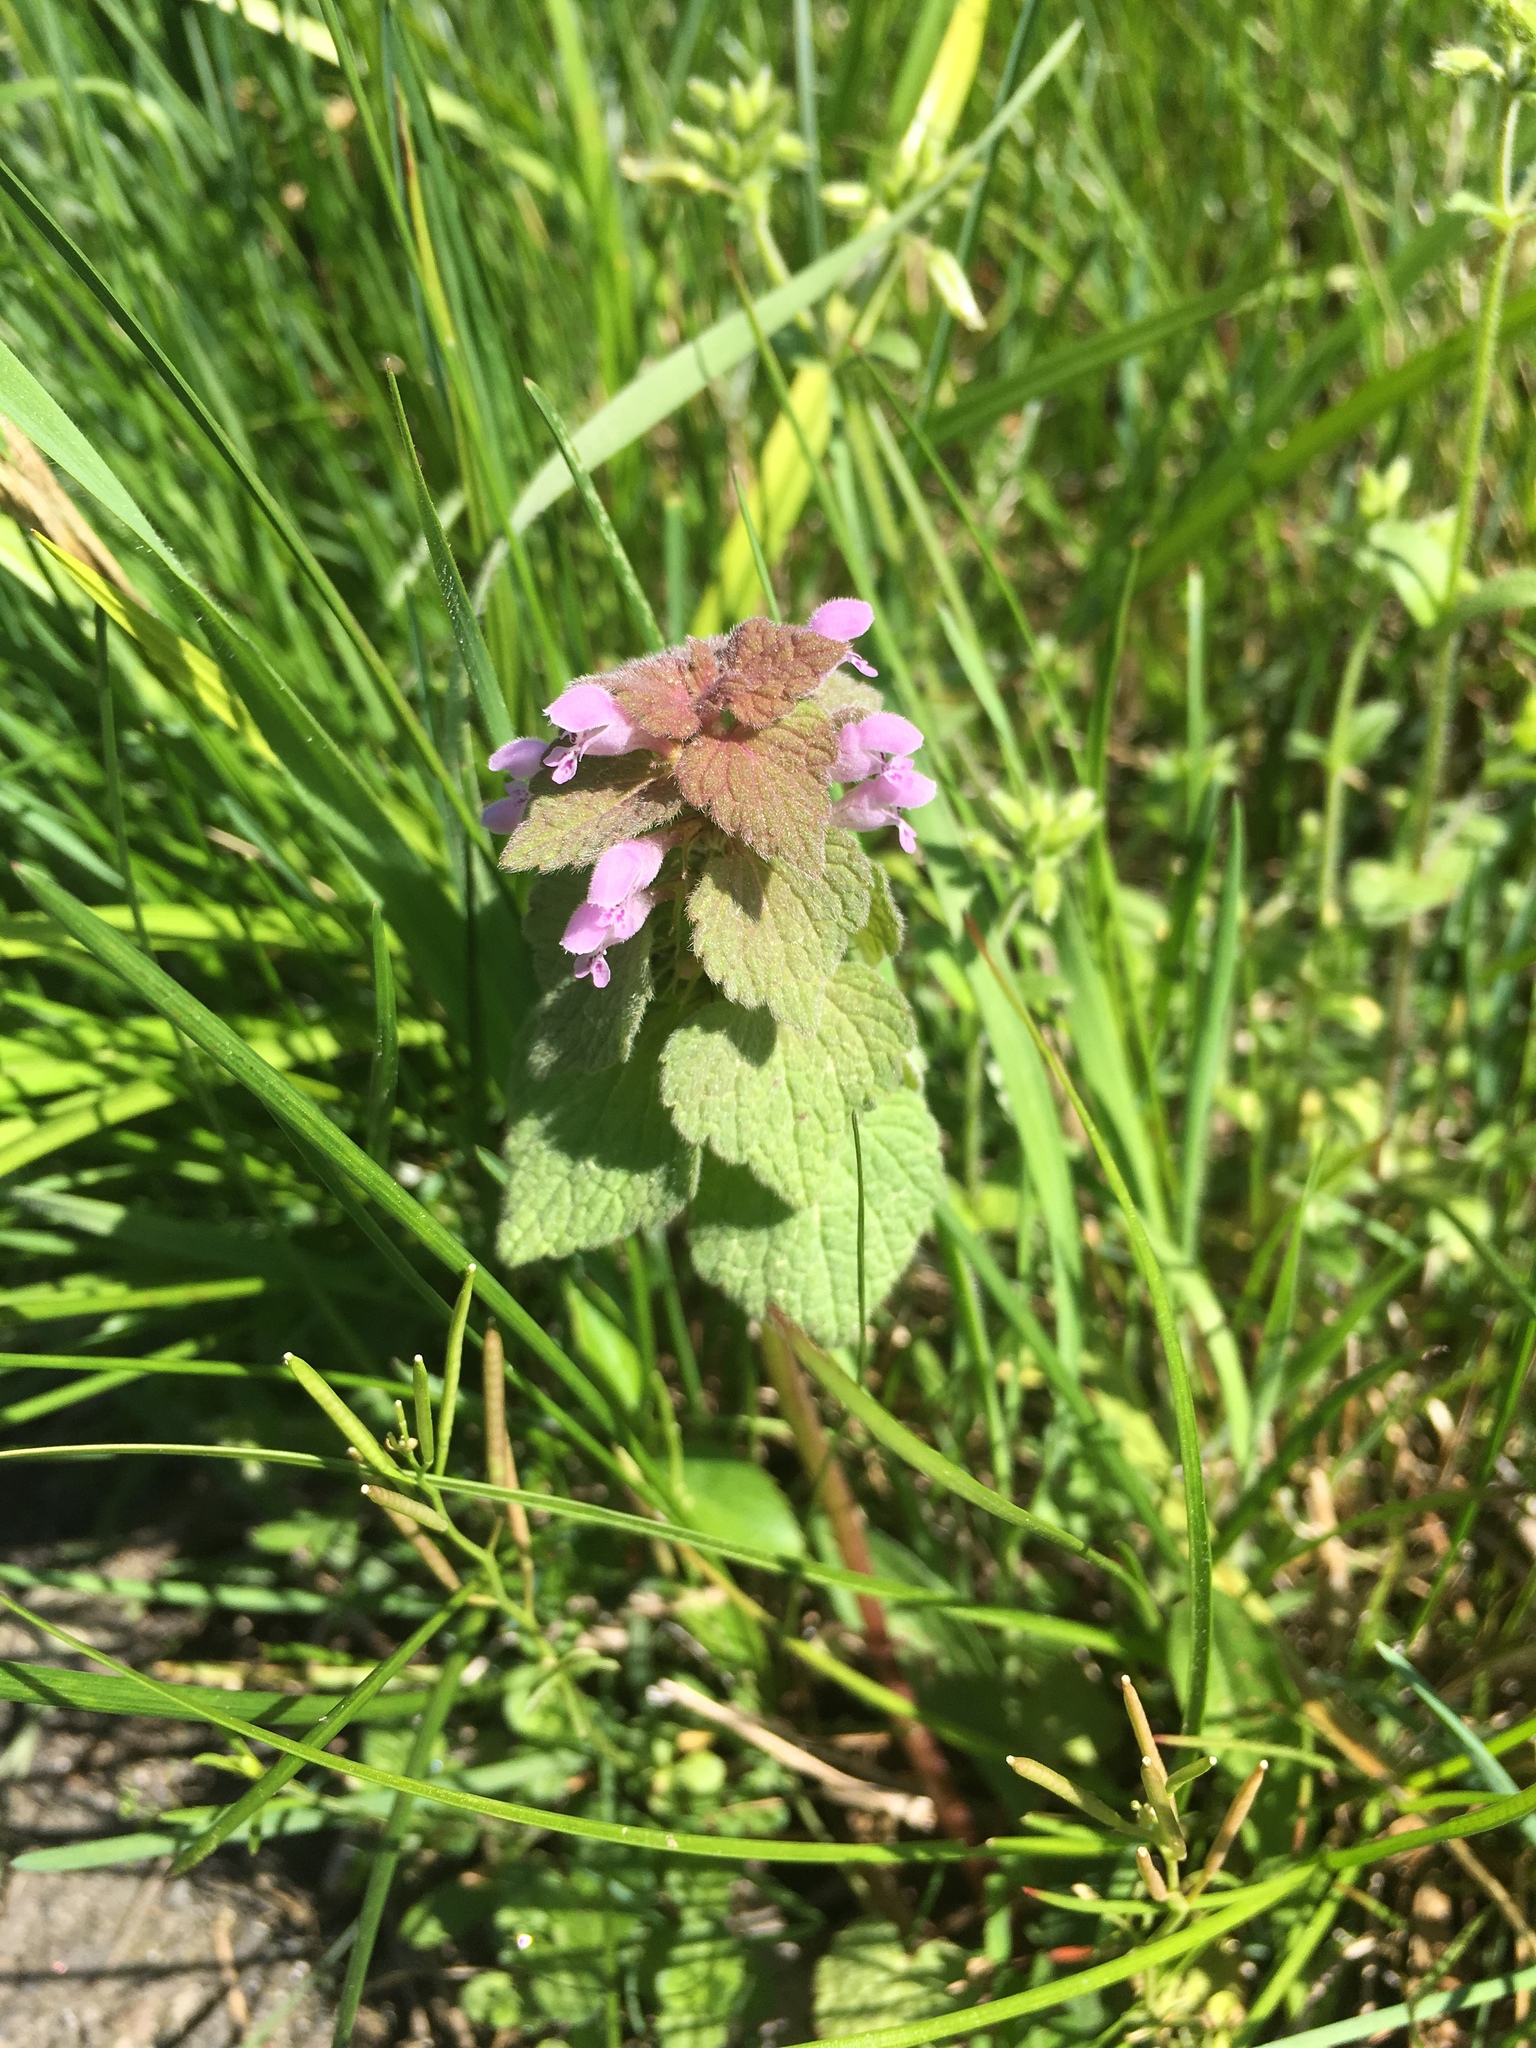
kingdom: Plantae
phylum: Tracheophyta
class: Magnoliopsida
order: Lamiales
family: Lamiaceae
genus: Lamium
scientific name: Lamium purpureum
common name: Red dead-nettle
